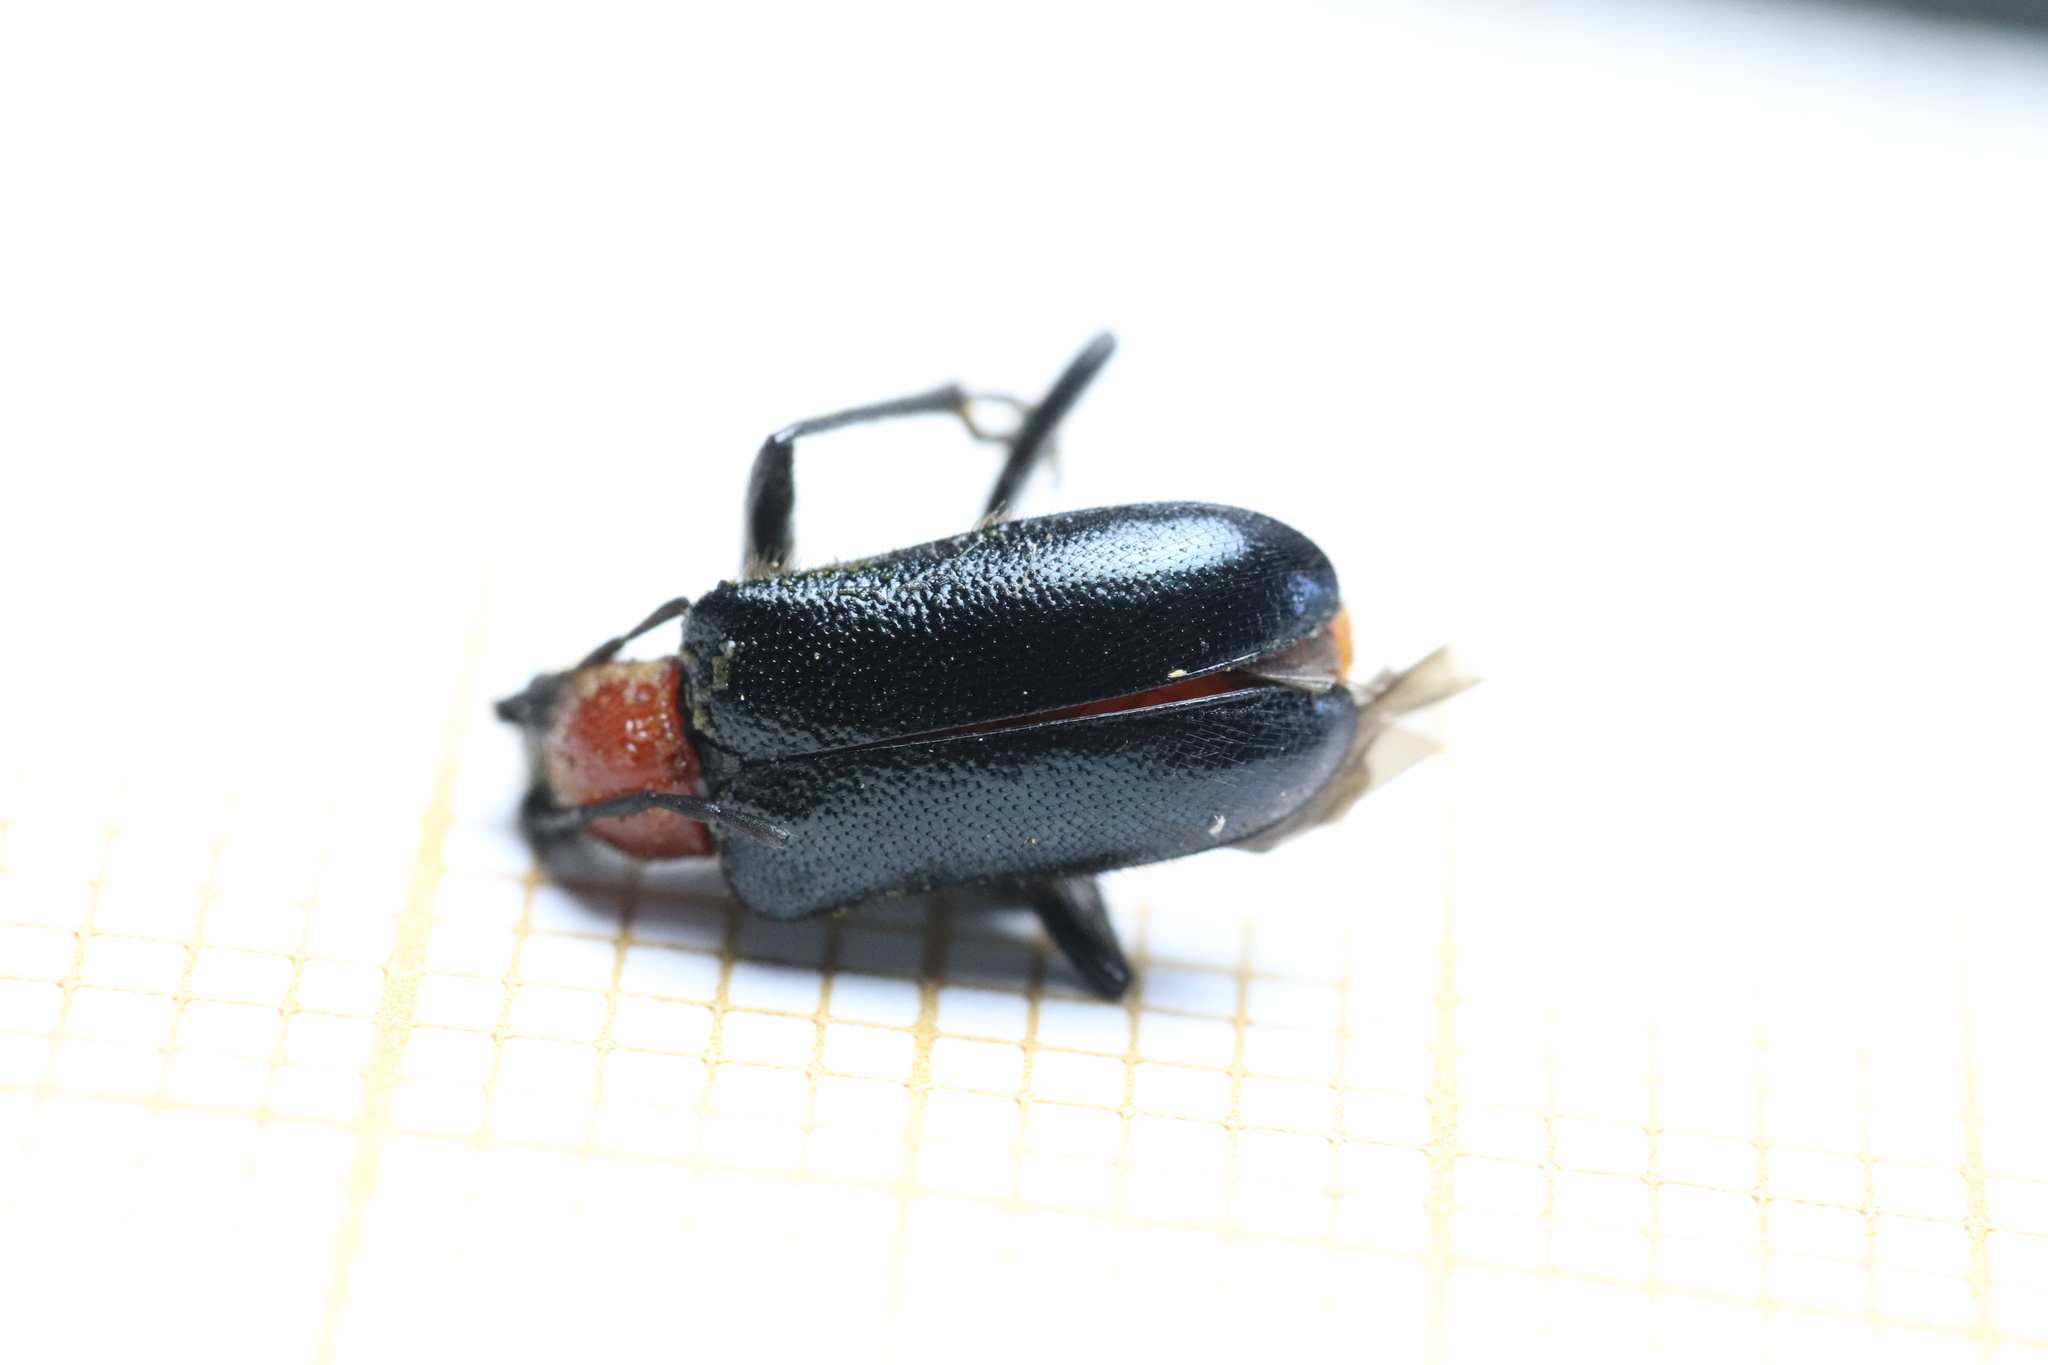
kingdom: Animalia
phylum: Arthropoda
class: Insecta
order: Coleoptera
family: Cerambycidae
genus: Dinoptera
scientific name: Dinoptera collaris
